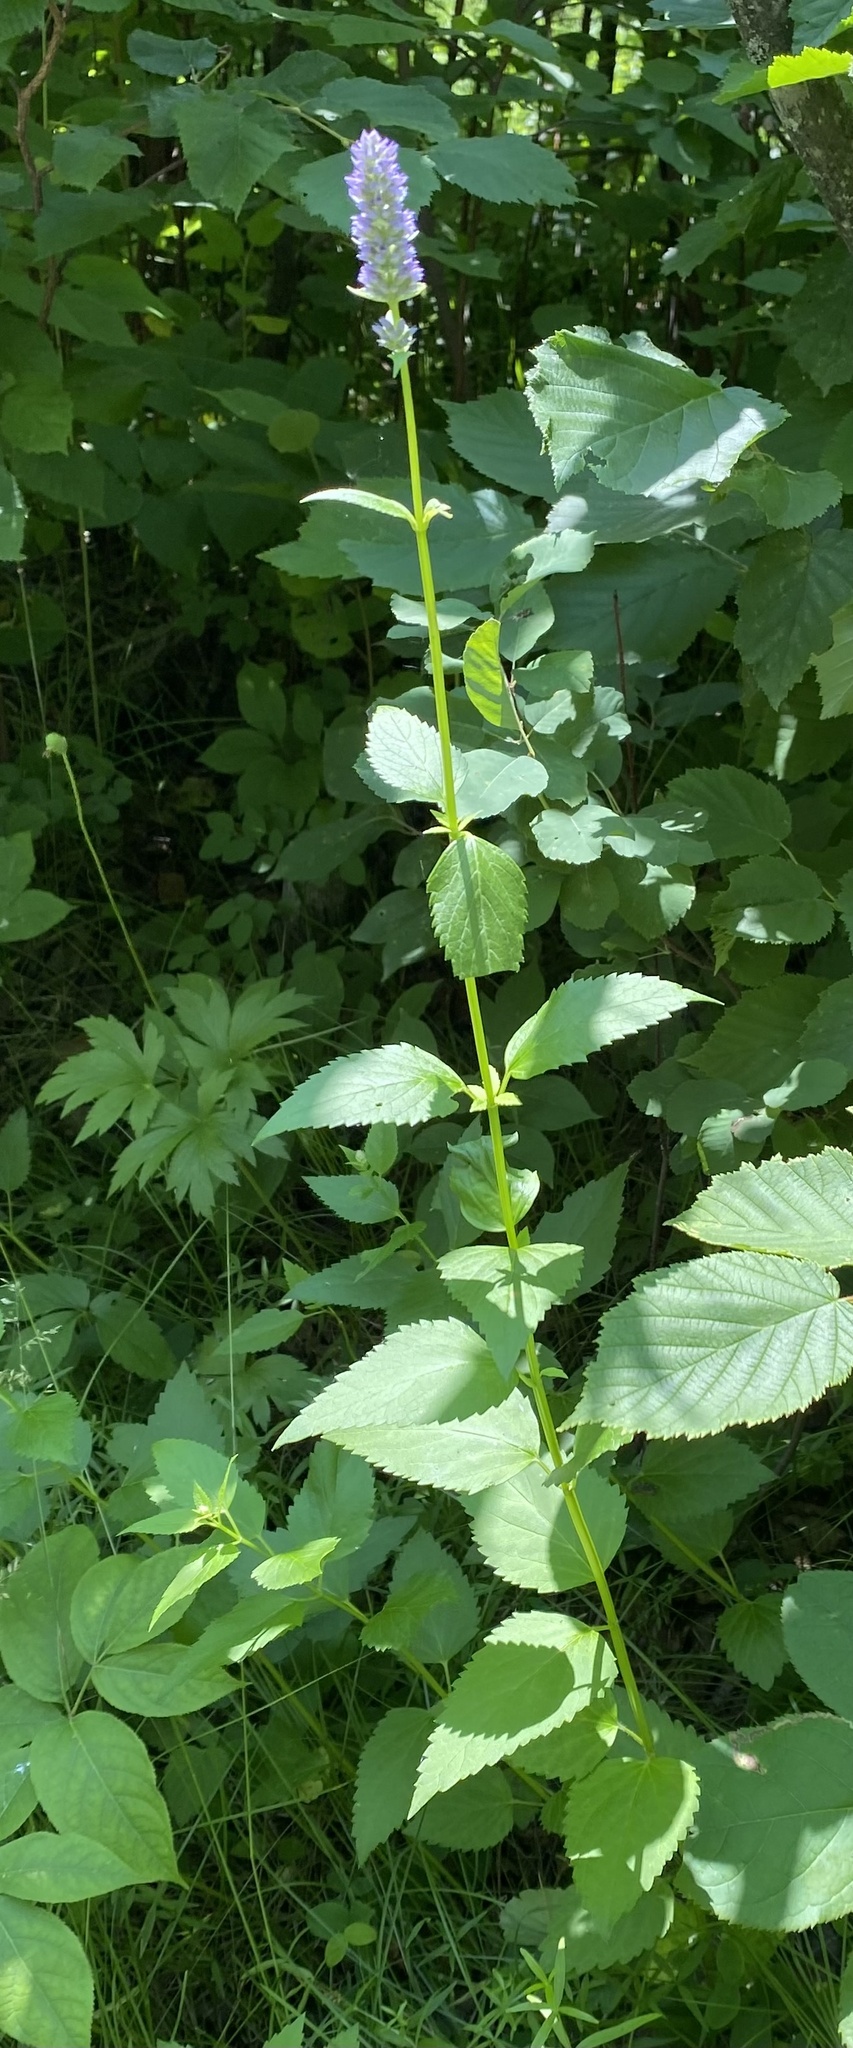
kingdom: Plantae
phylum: Tracheophyta
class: Magnoliopsida
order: Lamiales
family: Lamiaceae
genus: Agastache
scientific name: Agastache foeniculum
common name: Anise hyssop
